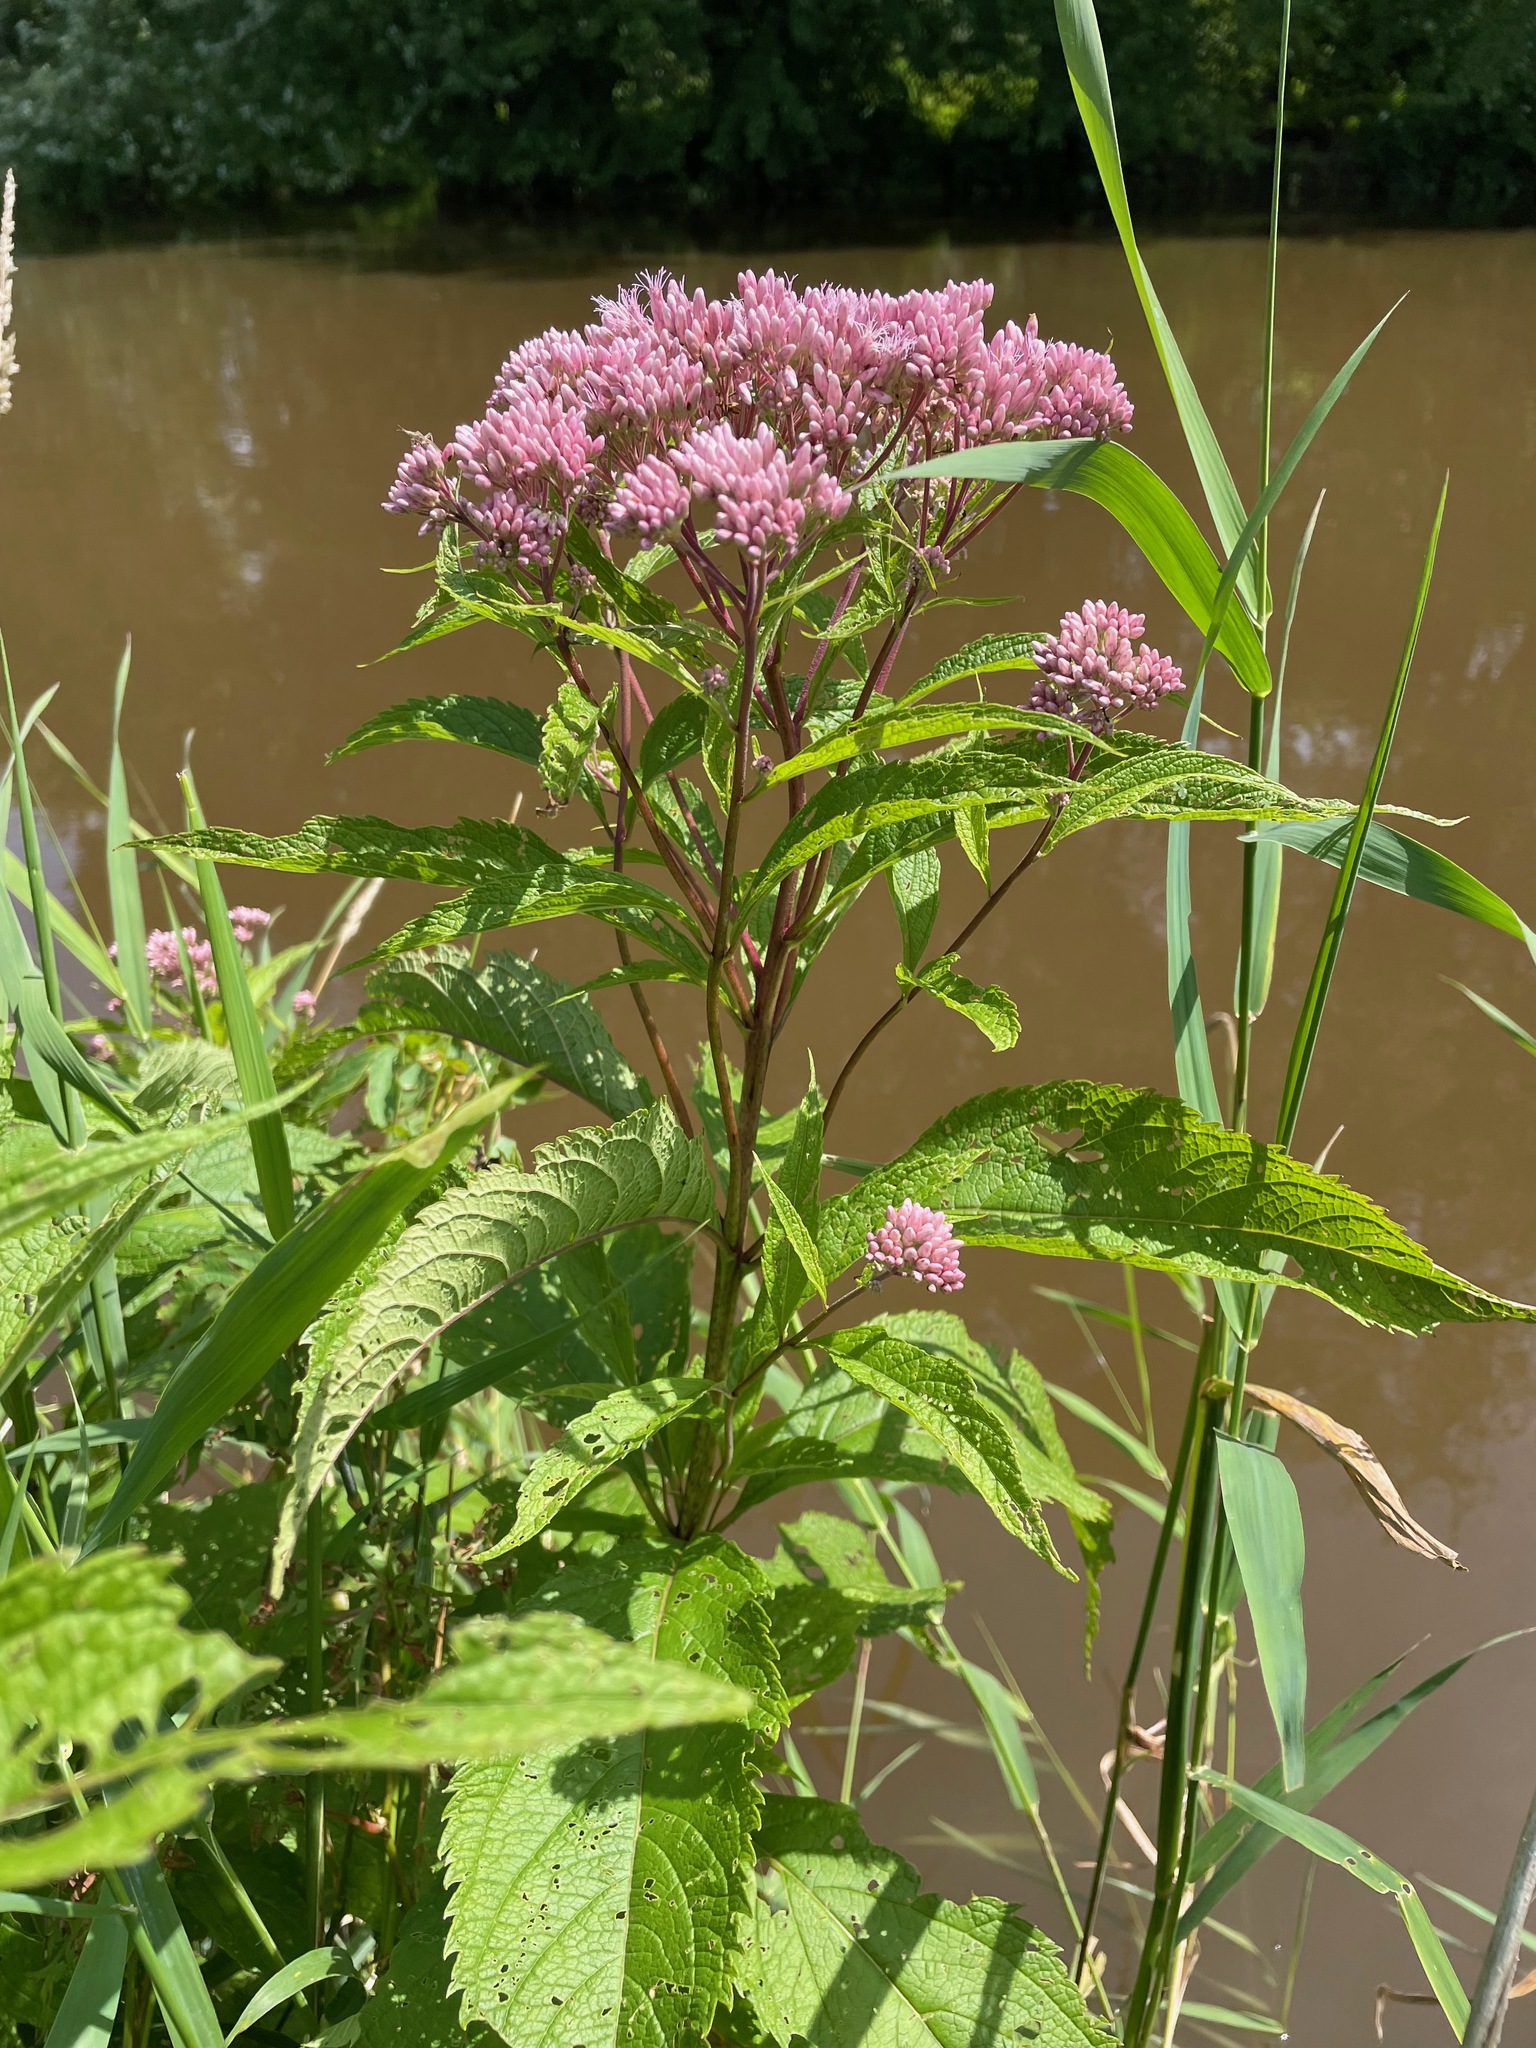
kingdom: Plantae
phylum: Tracheophyta
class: Magnoliopsida
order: Asterales
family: Asteraceae
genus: Eutrochium
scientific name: Eutrochium maculatum
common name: Spotted joe pye weed
